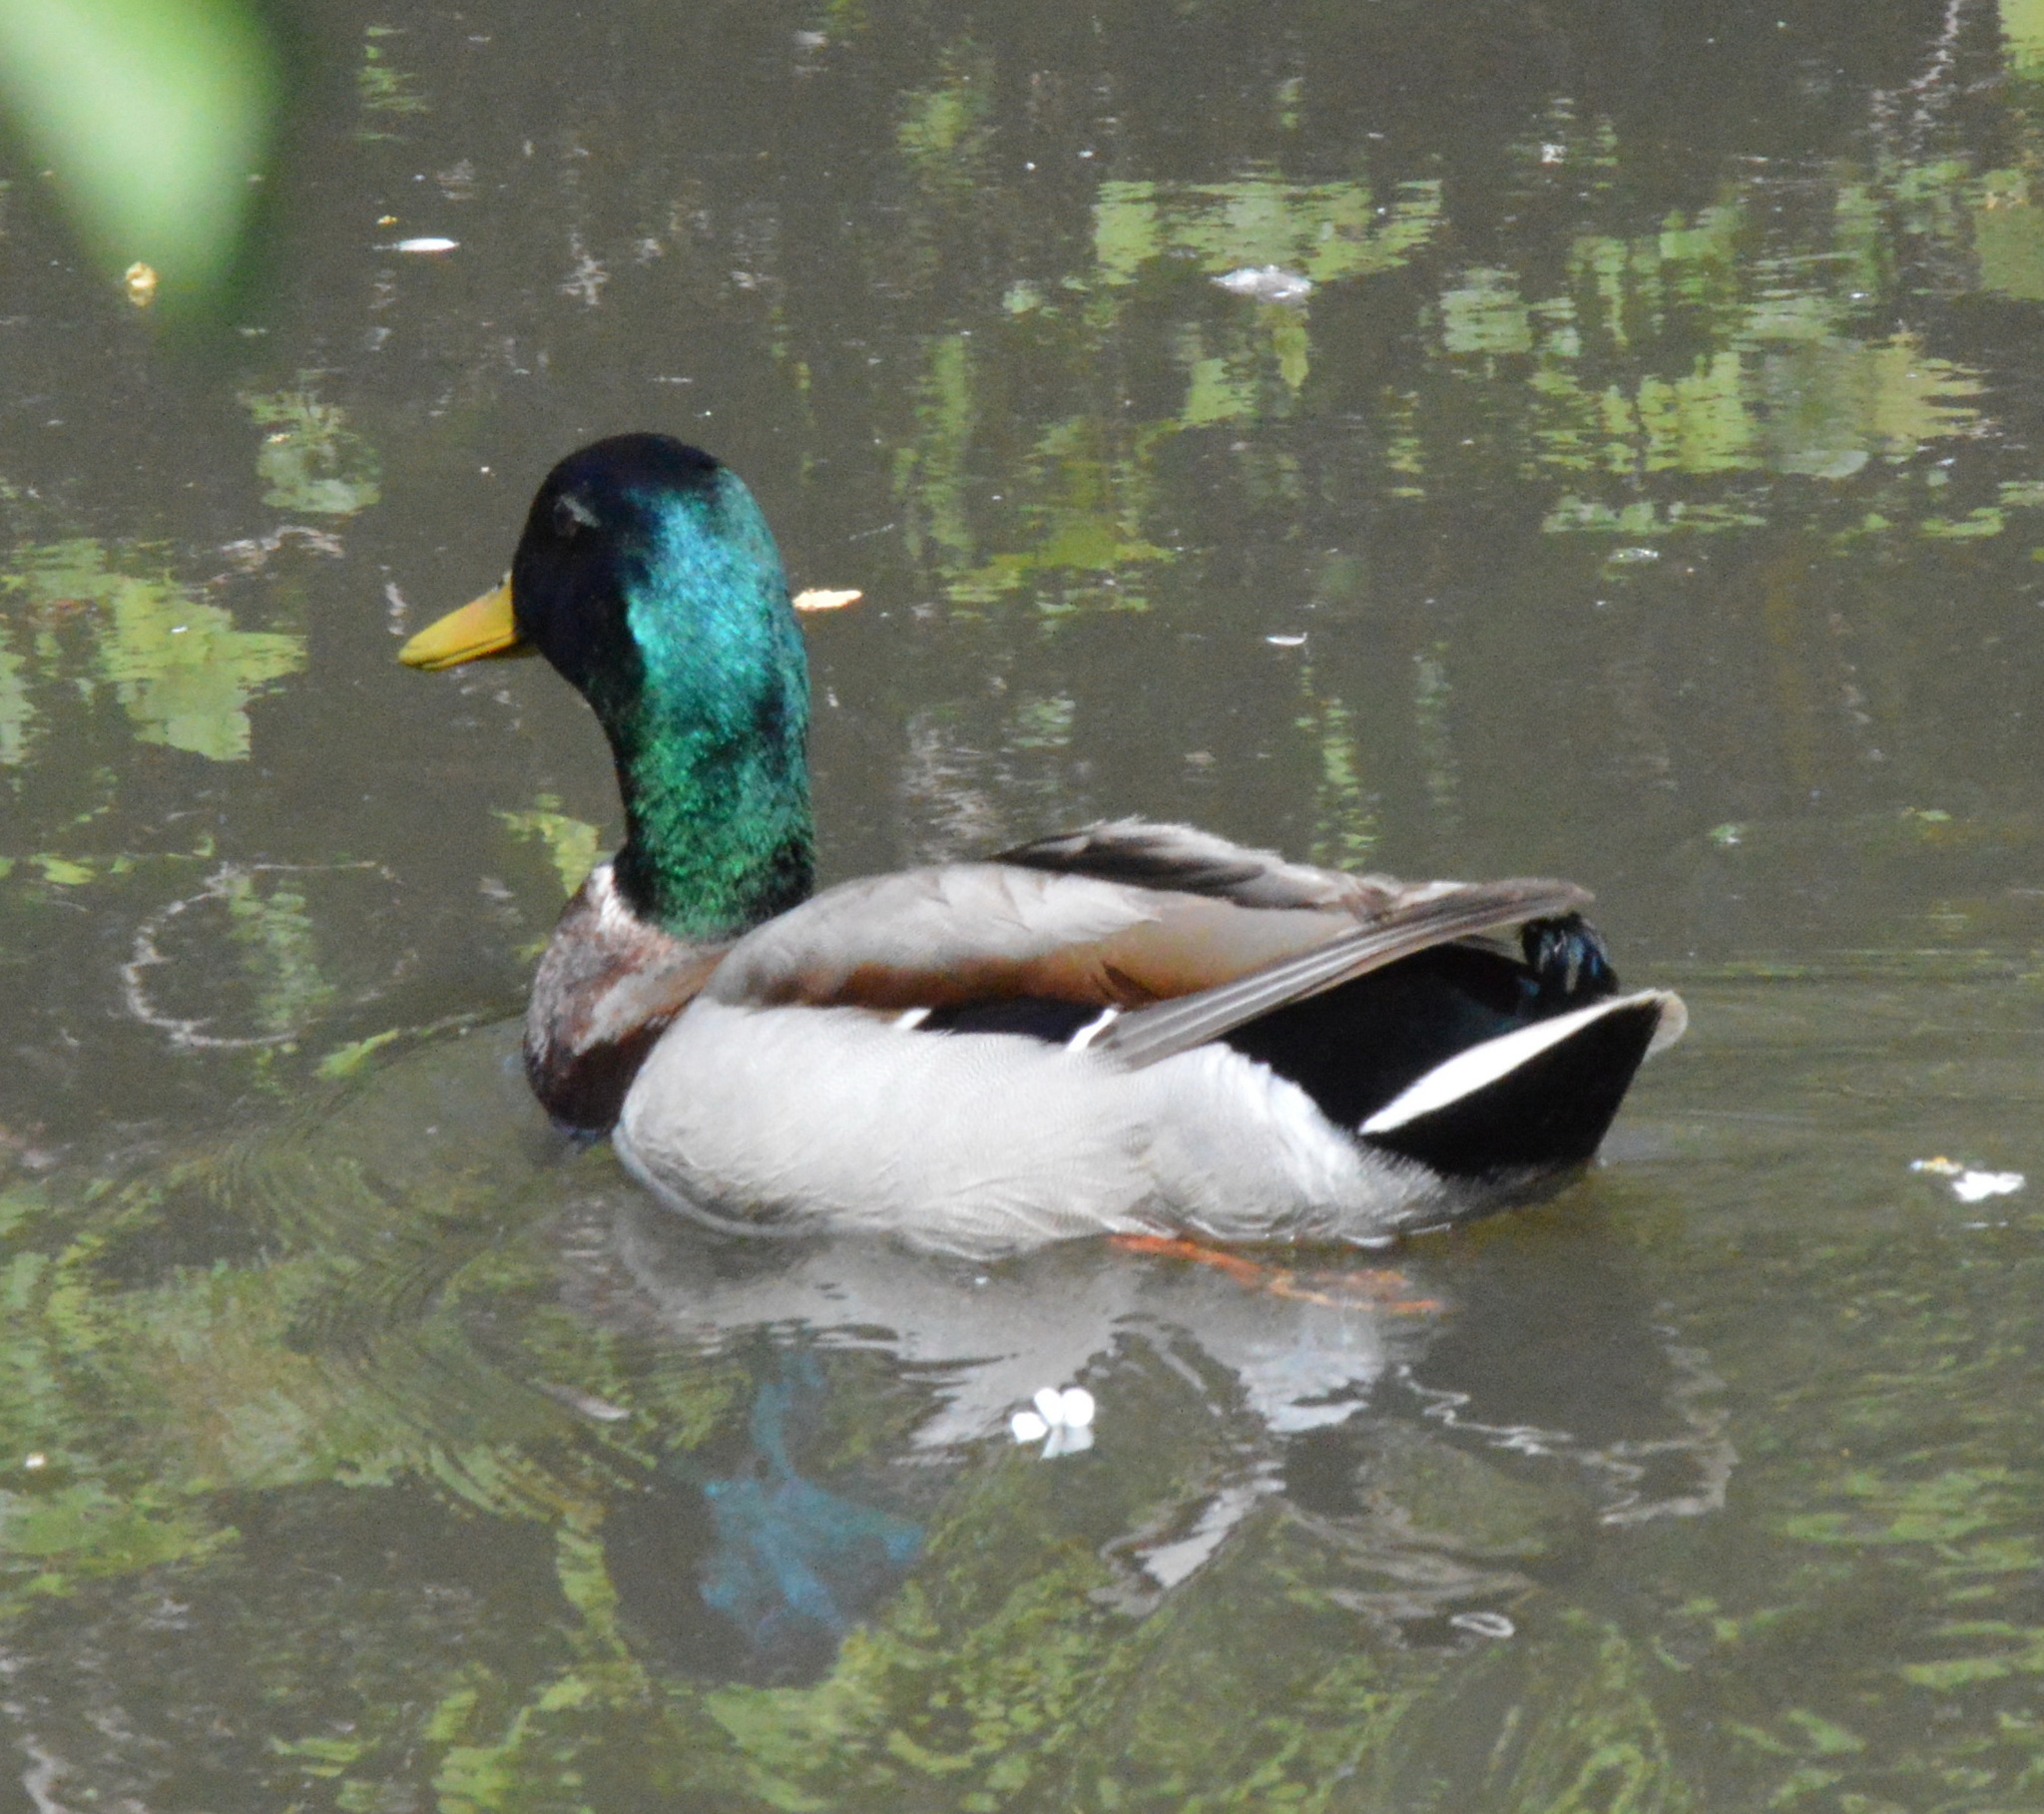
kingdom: Animalia
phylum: Chordata
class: Aves
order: Anseriformes
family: Anatidae
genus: Anas
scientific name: Anas platyrhynchos
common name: Mallard
